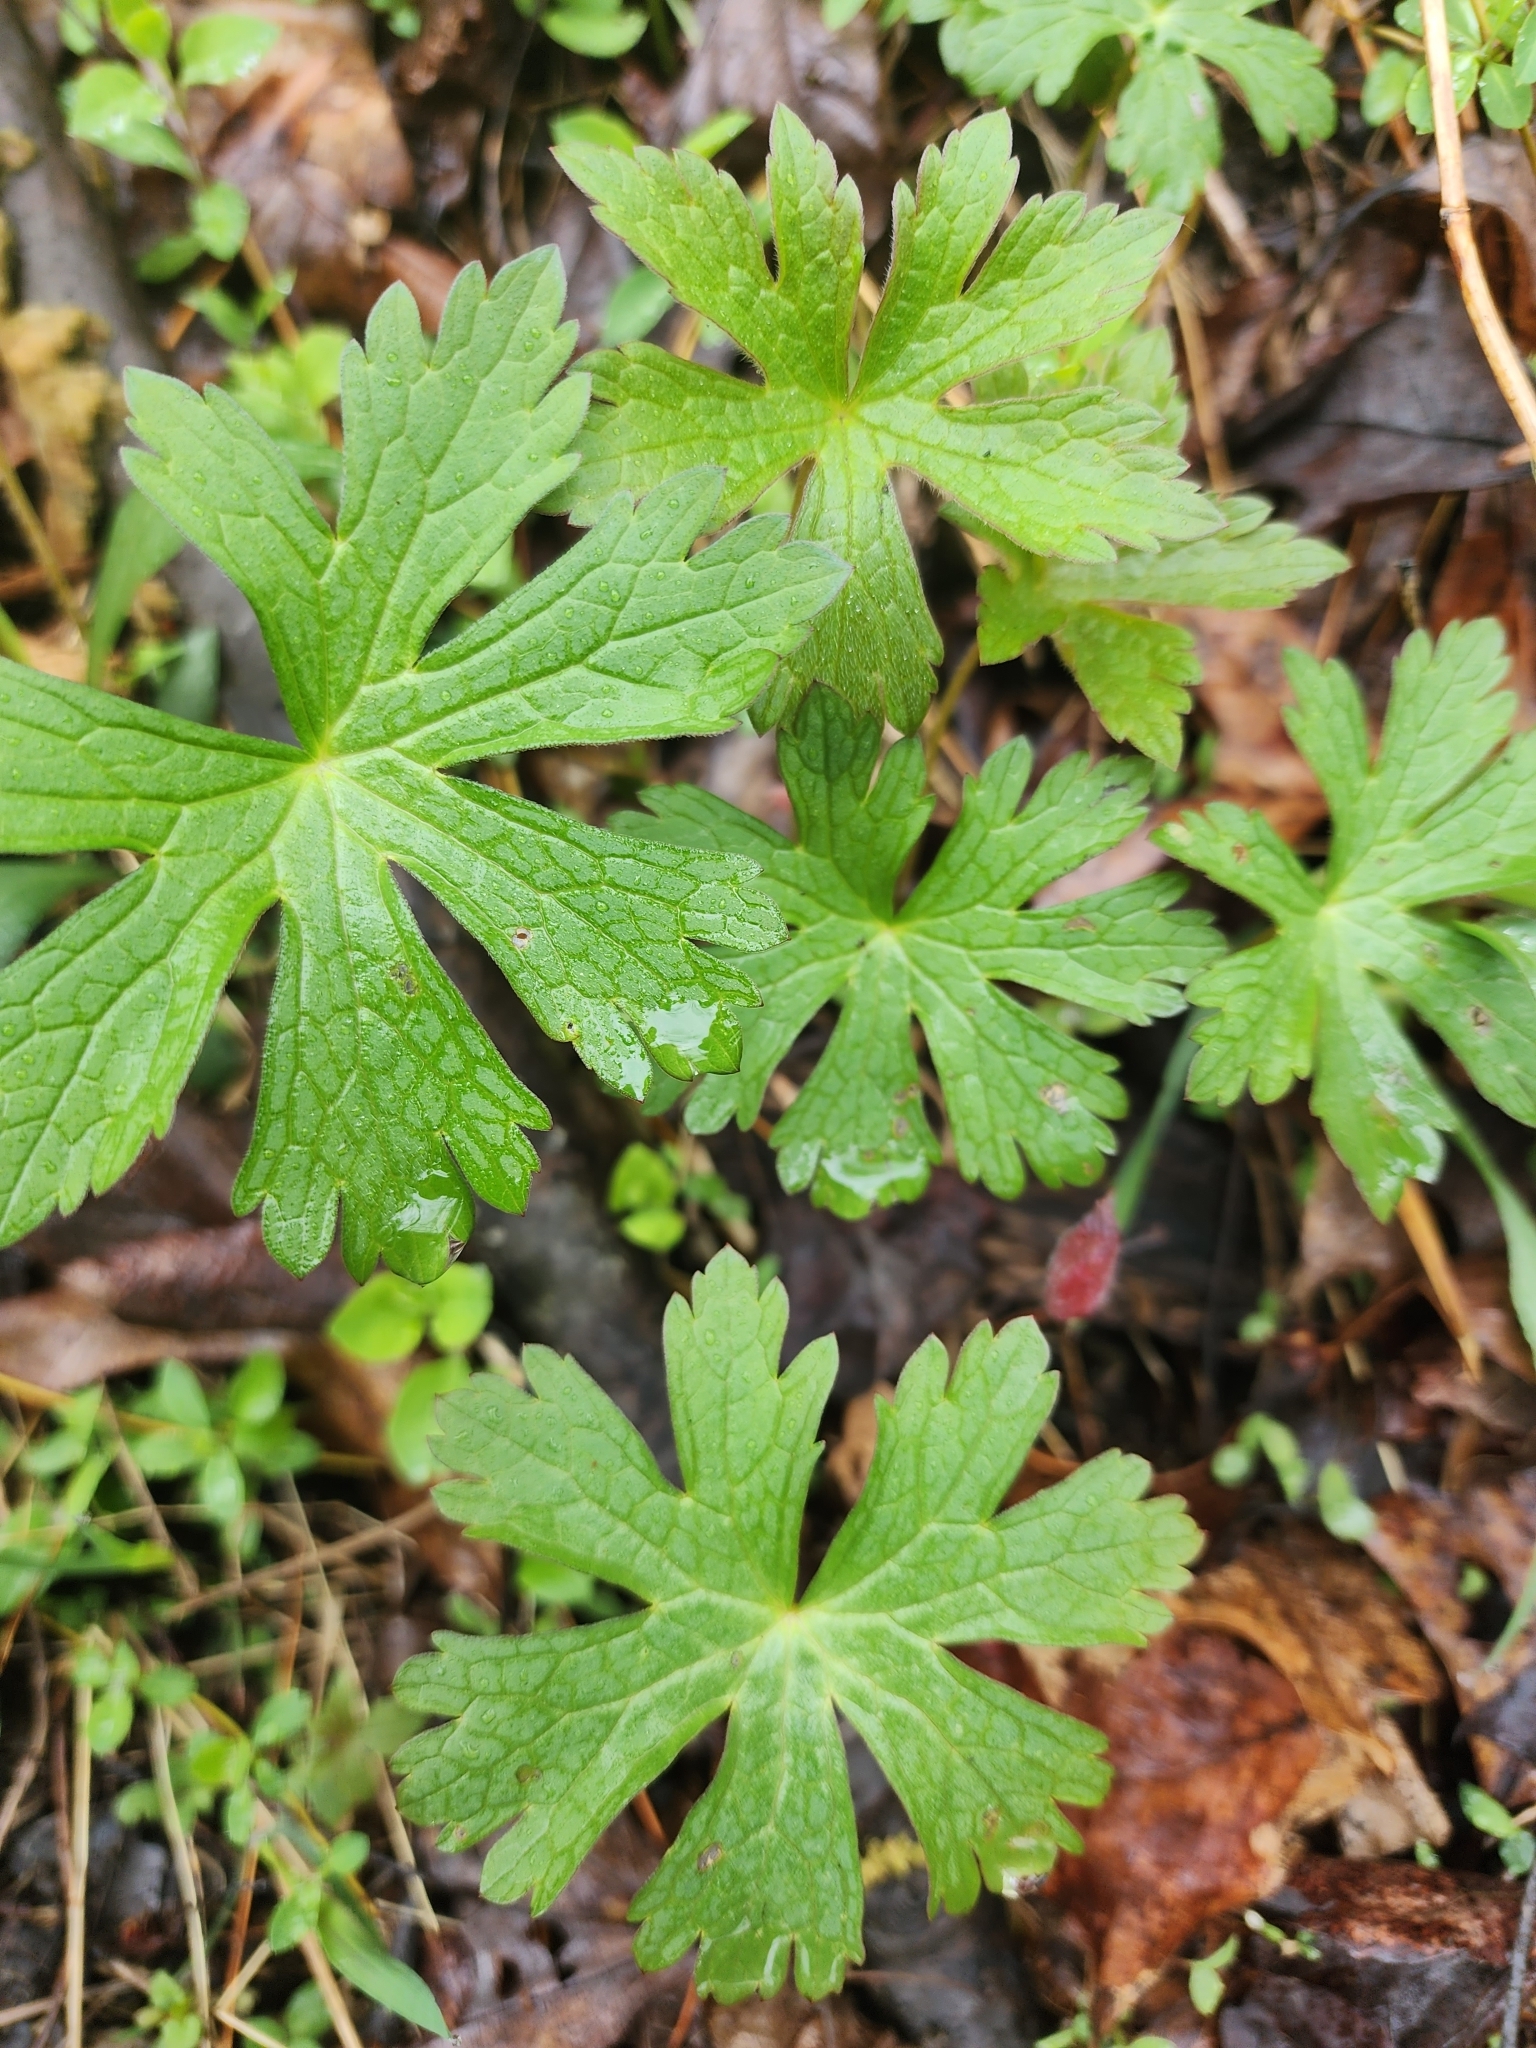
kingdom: Plantae
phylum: Tracheophyta
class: Magnoliopsida
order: Geraniales
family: Geraniaceae
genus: Geranium
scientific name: Geranium maculatum
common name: Spotted geranium
